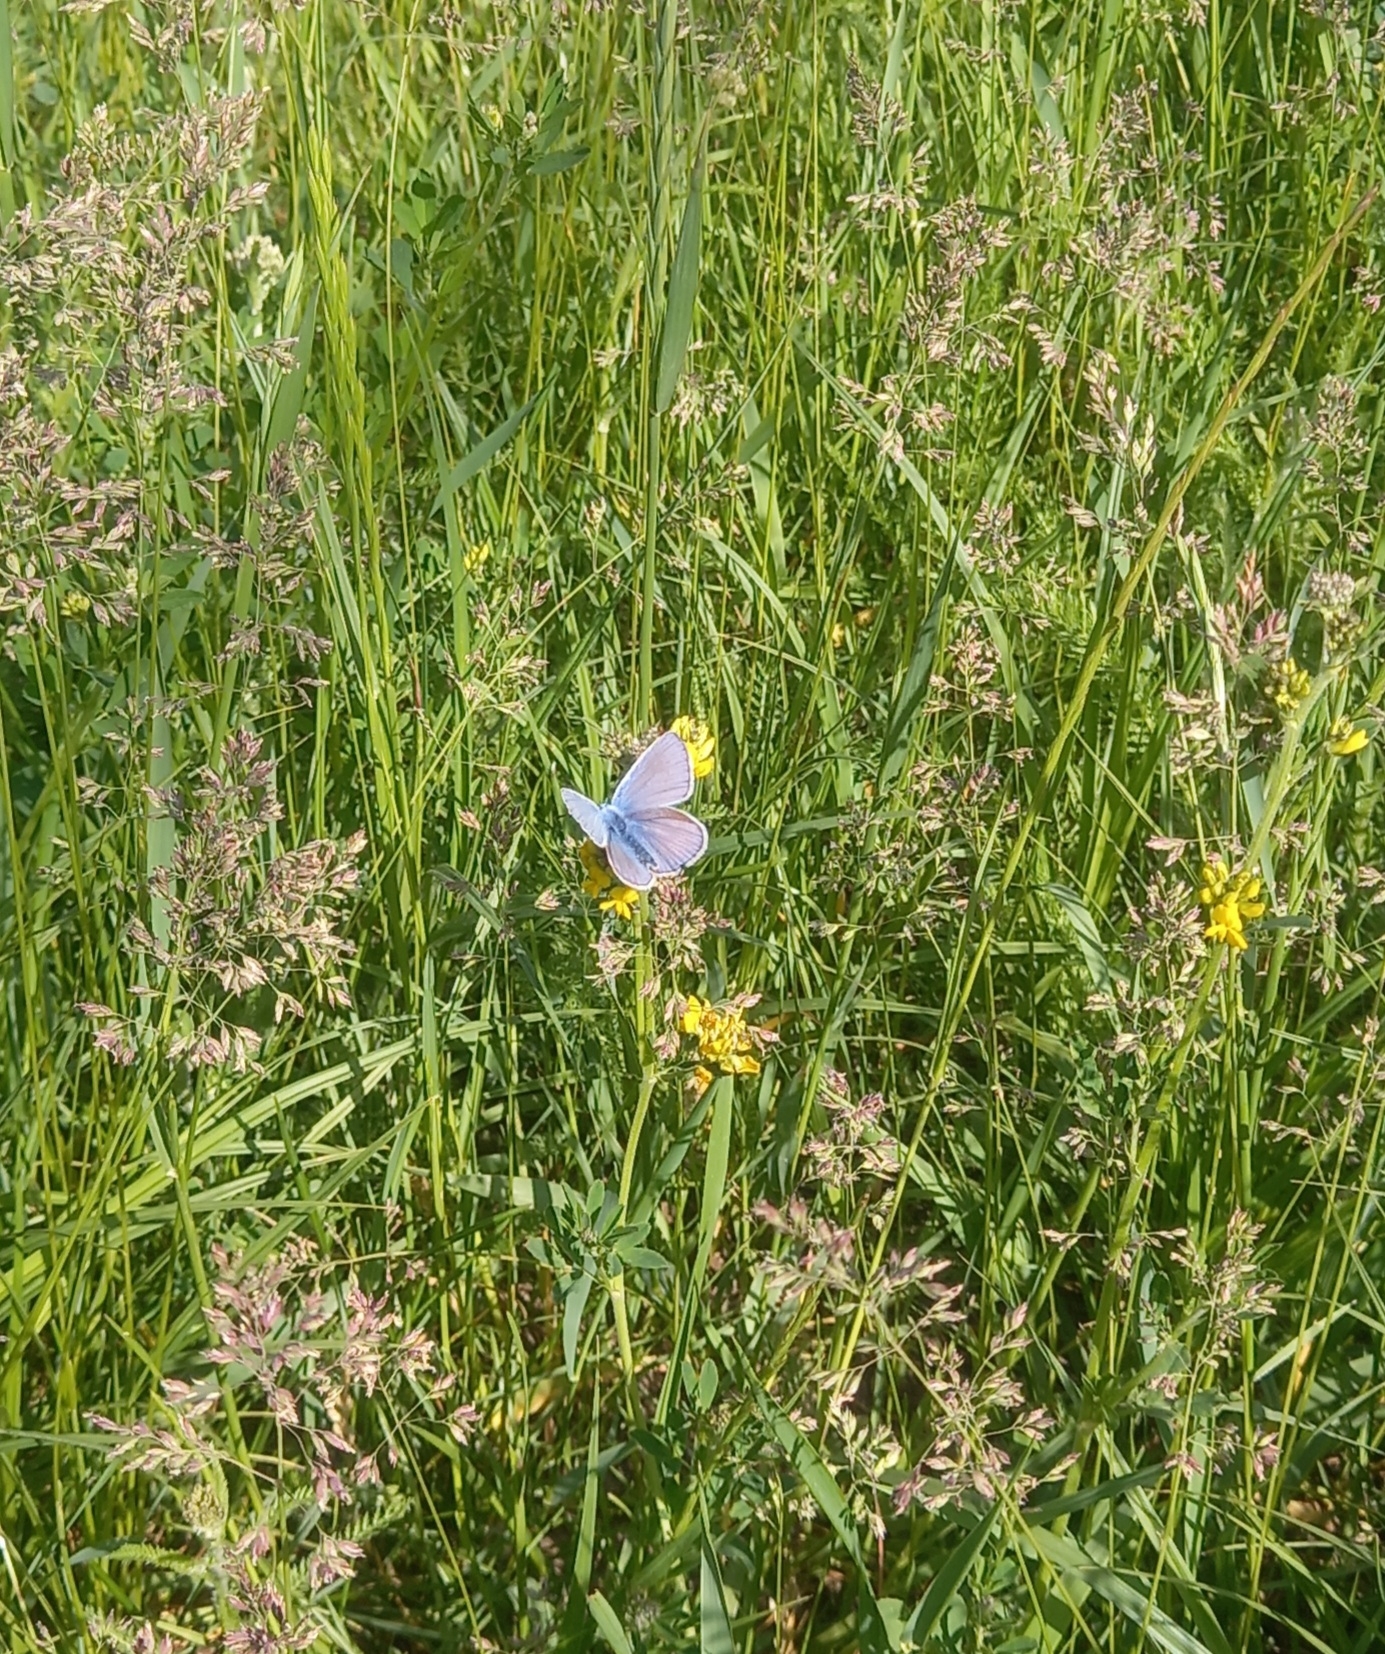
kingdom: Animalia
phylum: Arthropoda
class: Insecta
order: Lepidoptera
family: Lycaenidae
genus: Polyommatus
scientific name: Polyommatus icarus
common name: Common blue
